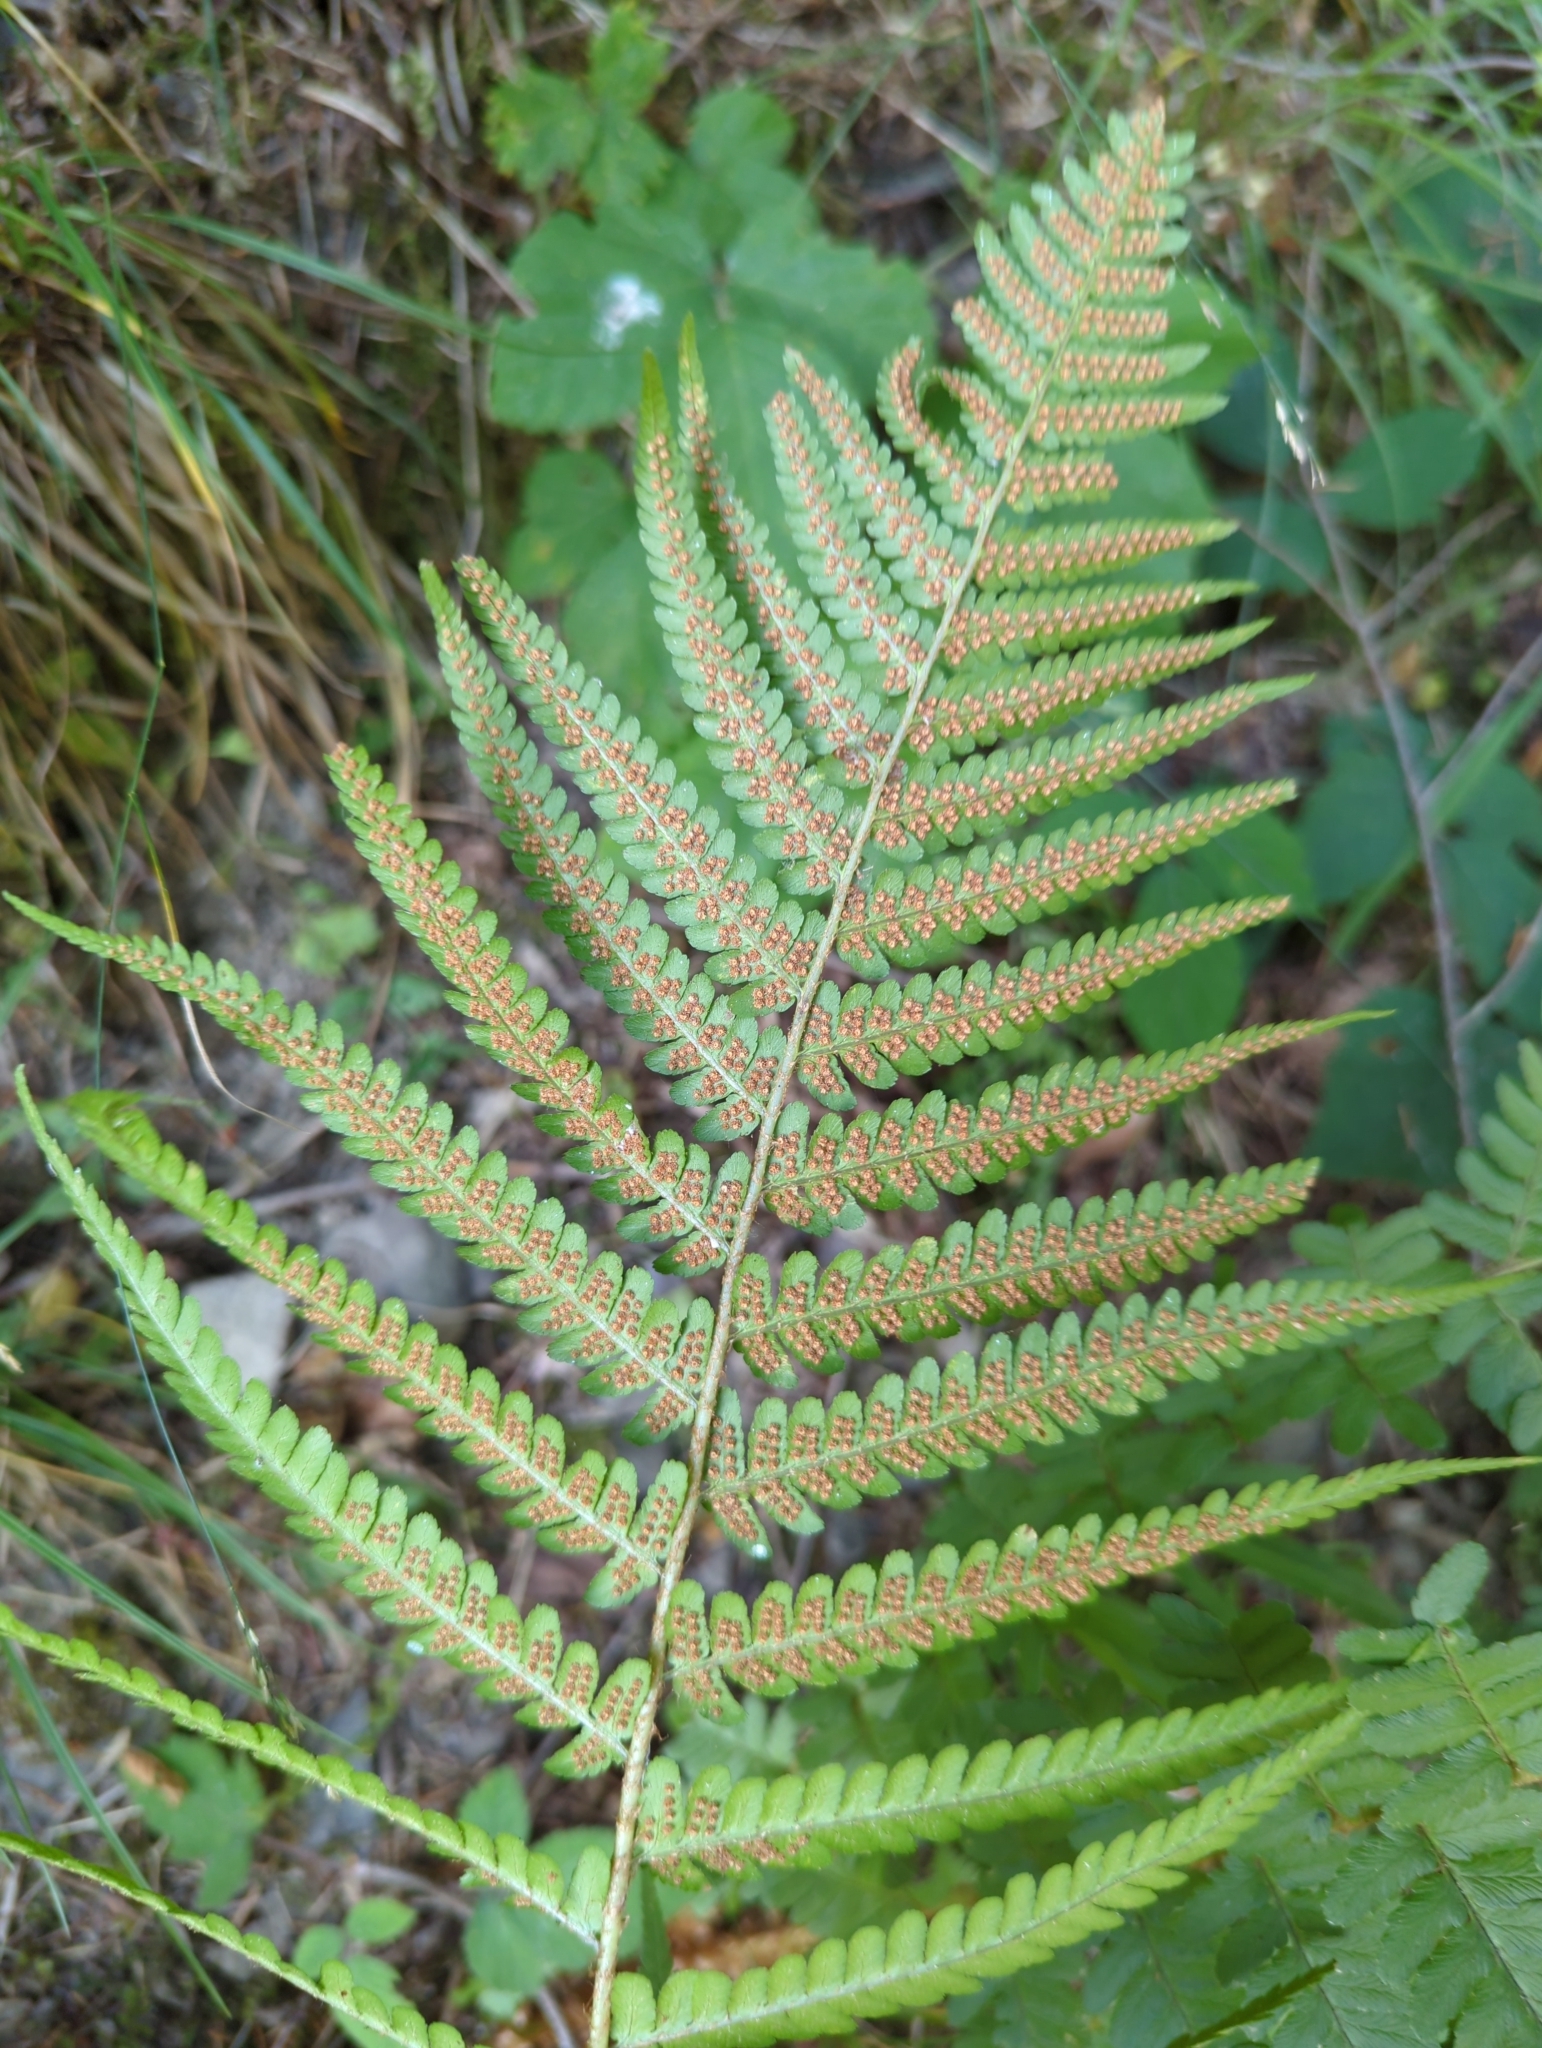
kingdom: Plantae
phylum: Tracheophyta
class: Polypodiopsida
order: Polypodiales
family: Dryopteridaceae
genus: Dryopteris
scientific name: Dryopteris filix-mas
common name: Male fern
